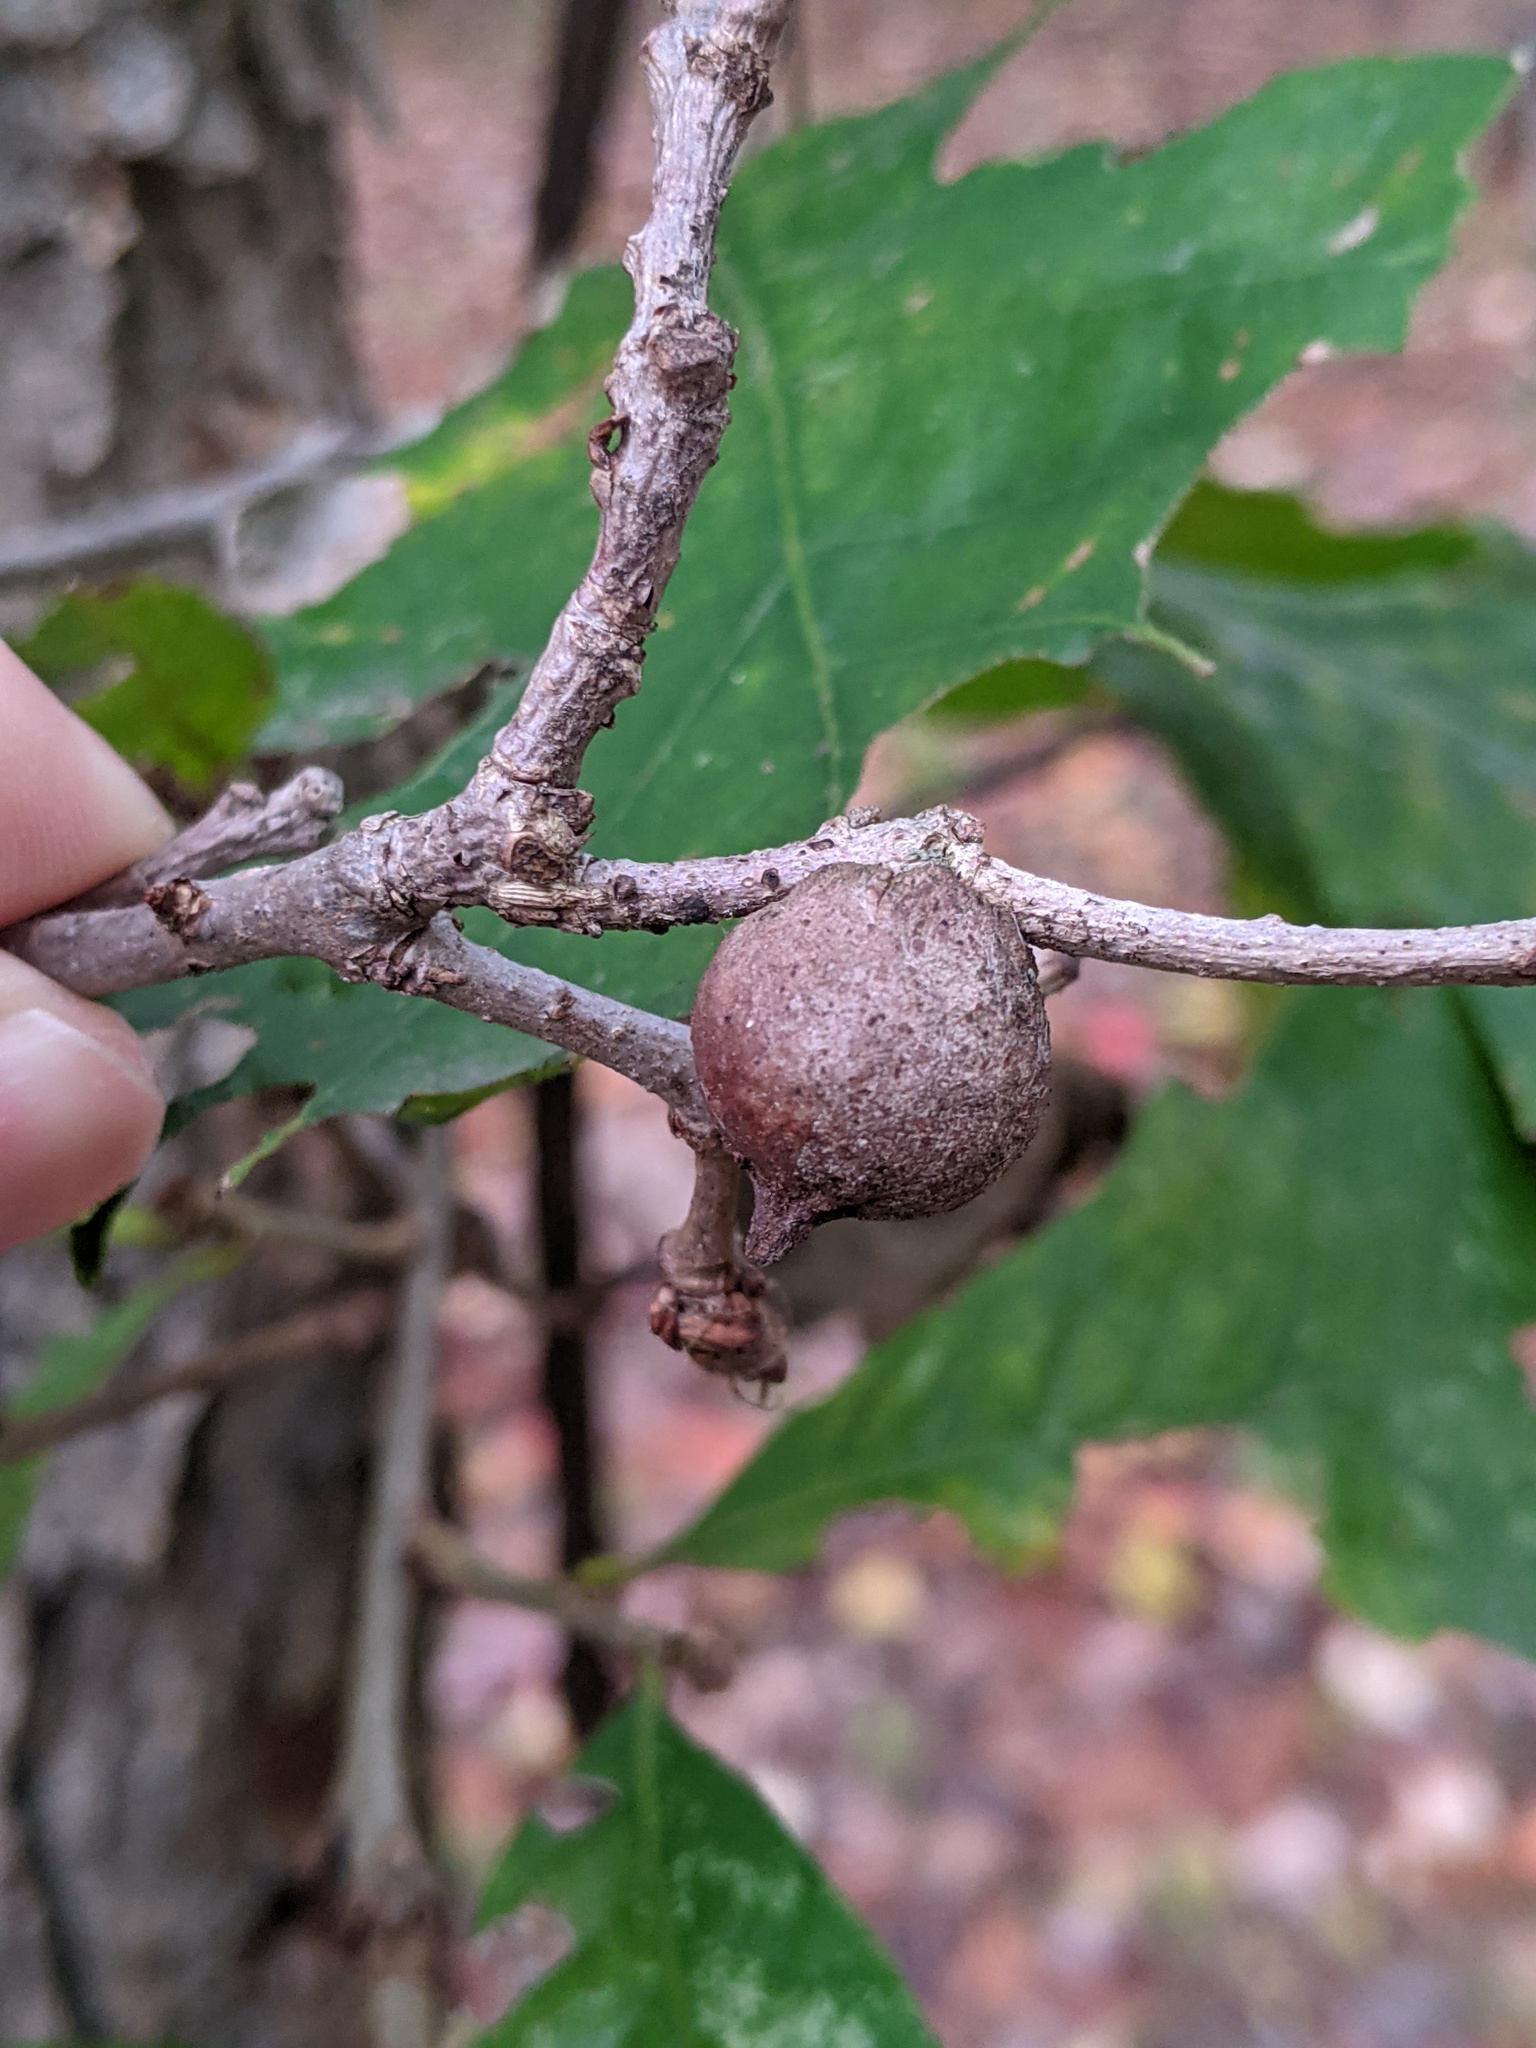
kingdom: Animalia
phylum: Arthropoda
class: Insecta
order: Hymenoptera
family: Cynipidae
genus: Disholcaspis
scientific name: Disholcaspis
